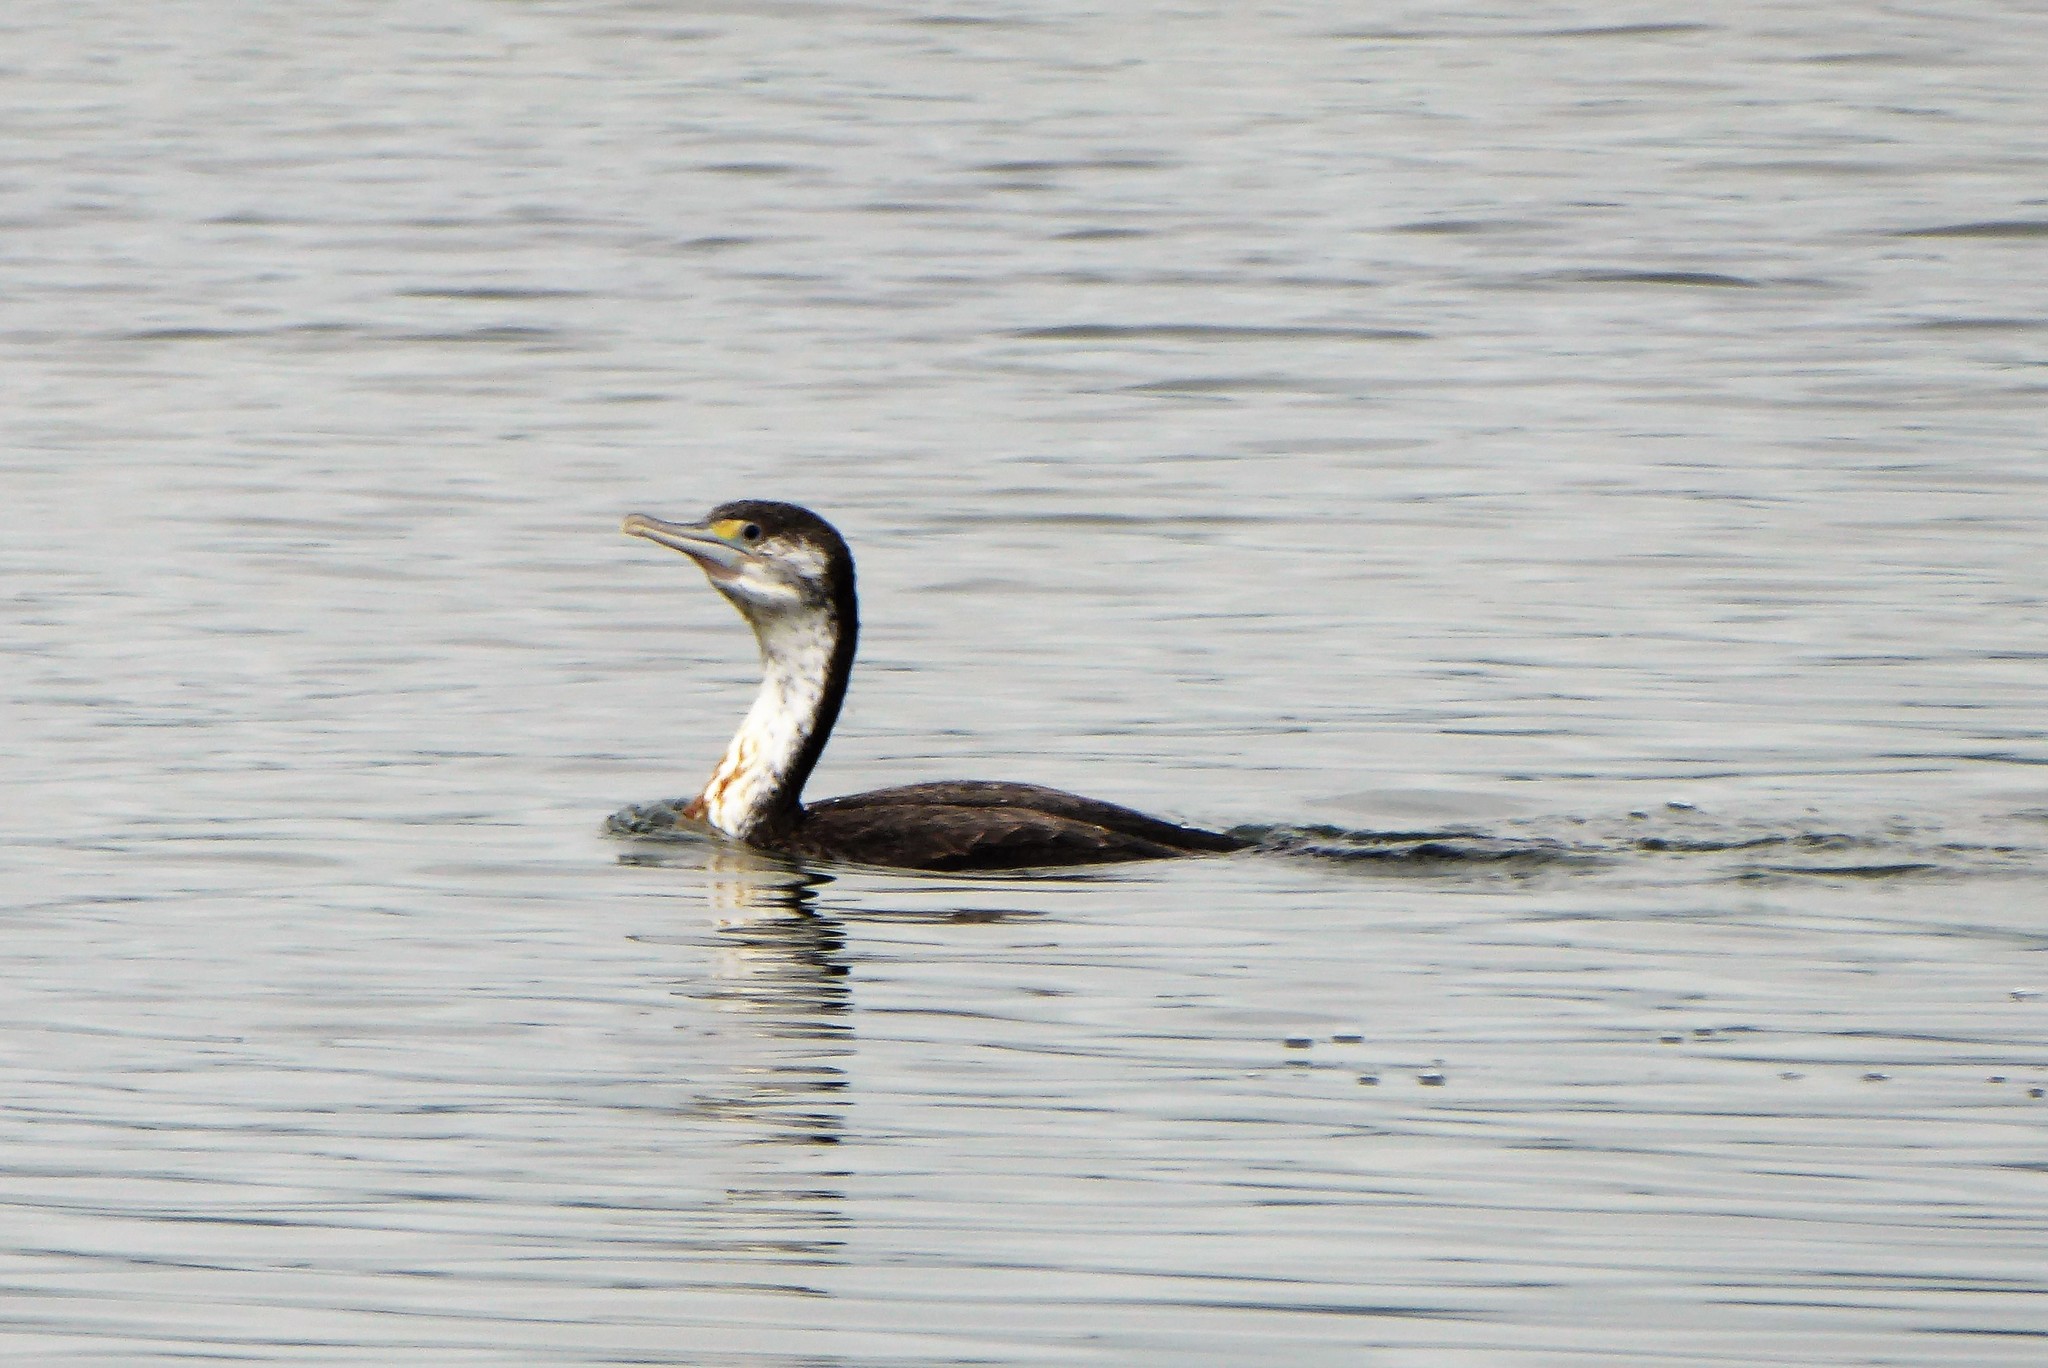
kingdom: Animalia
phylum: Chordata
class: Aves
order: Suliformes
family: Phalacrocoracidae
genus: Phalacrocorax
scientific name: Phalacrocorax varius
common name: Pied cormorant
